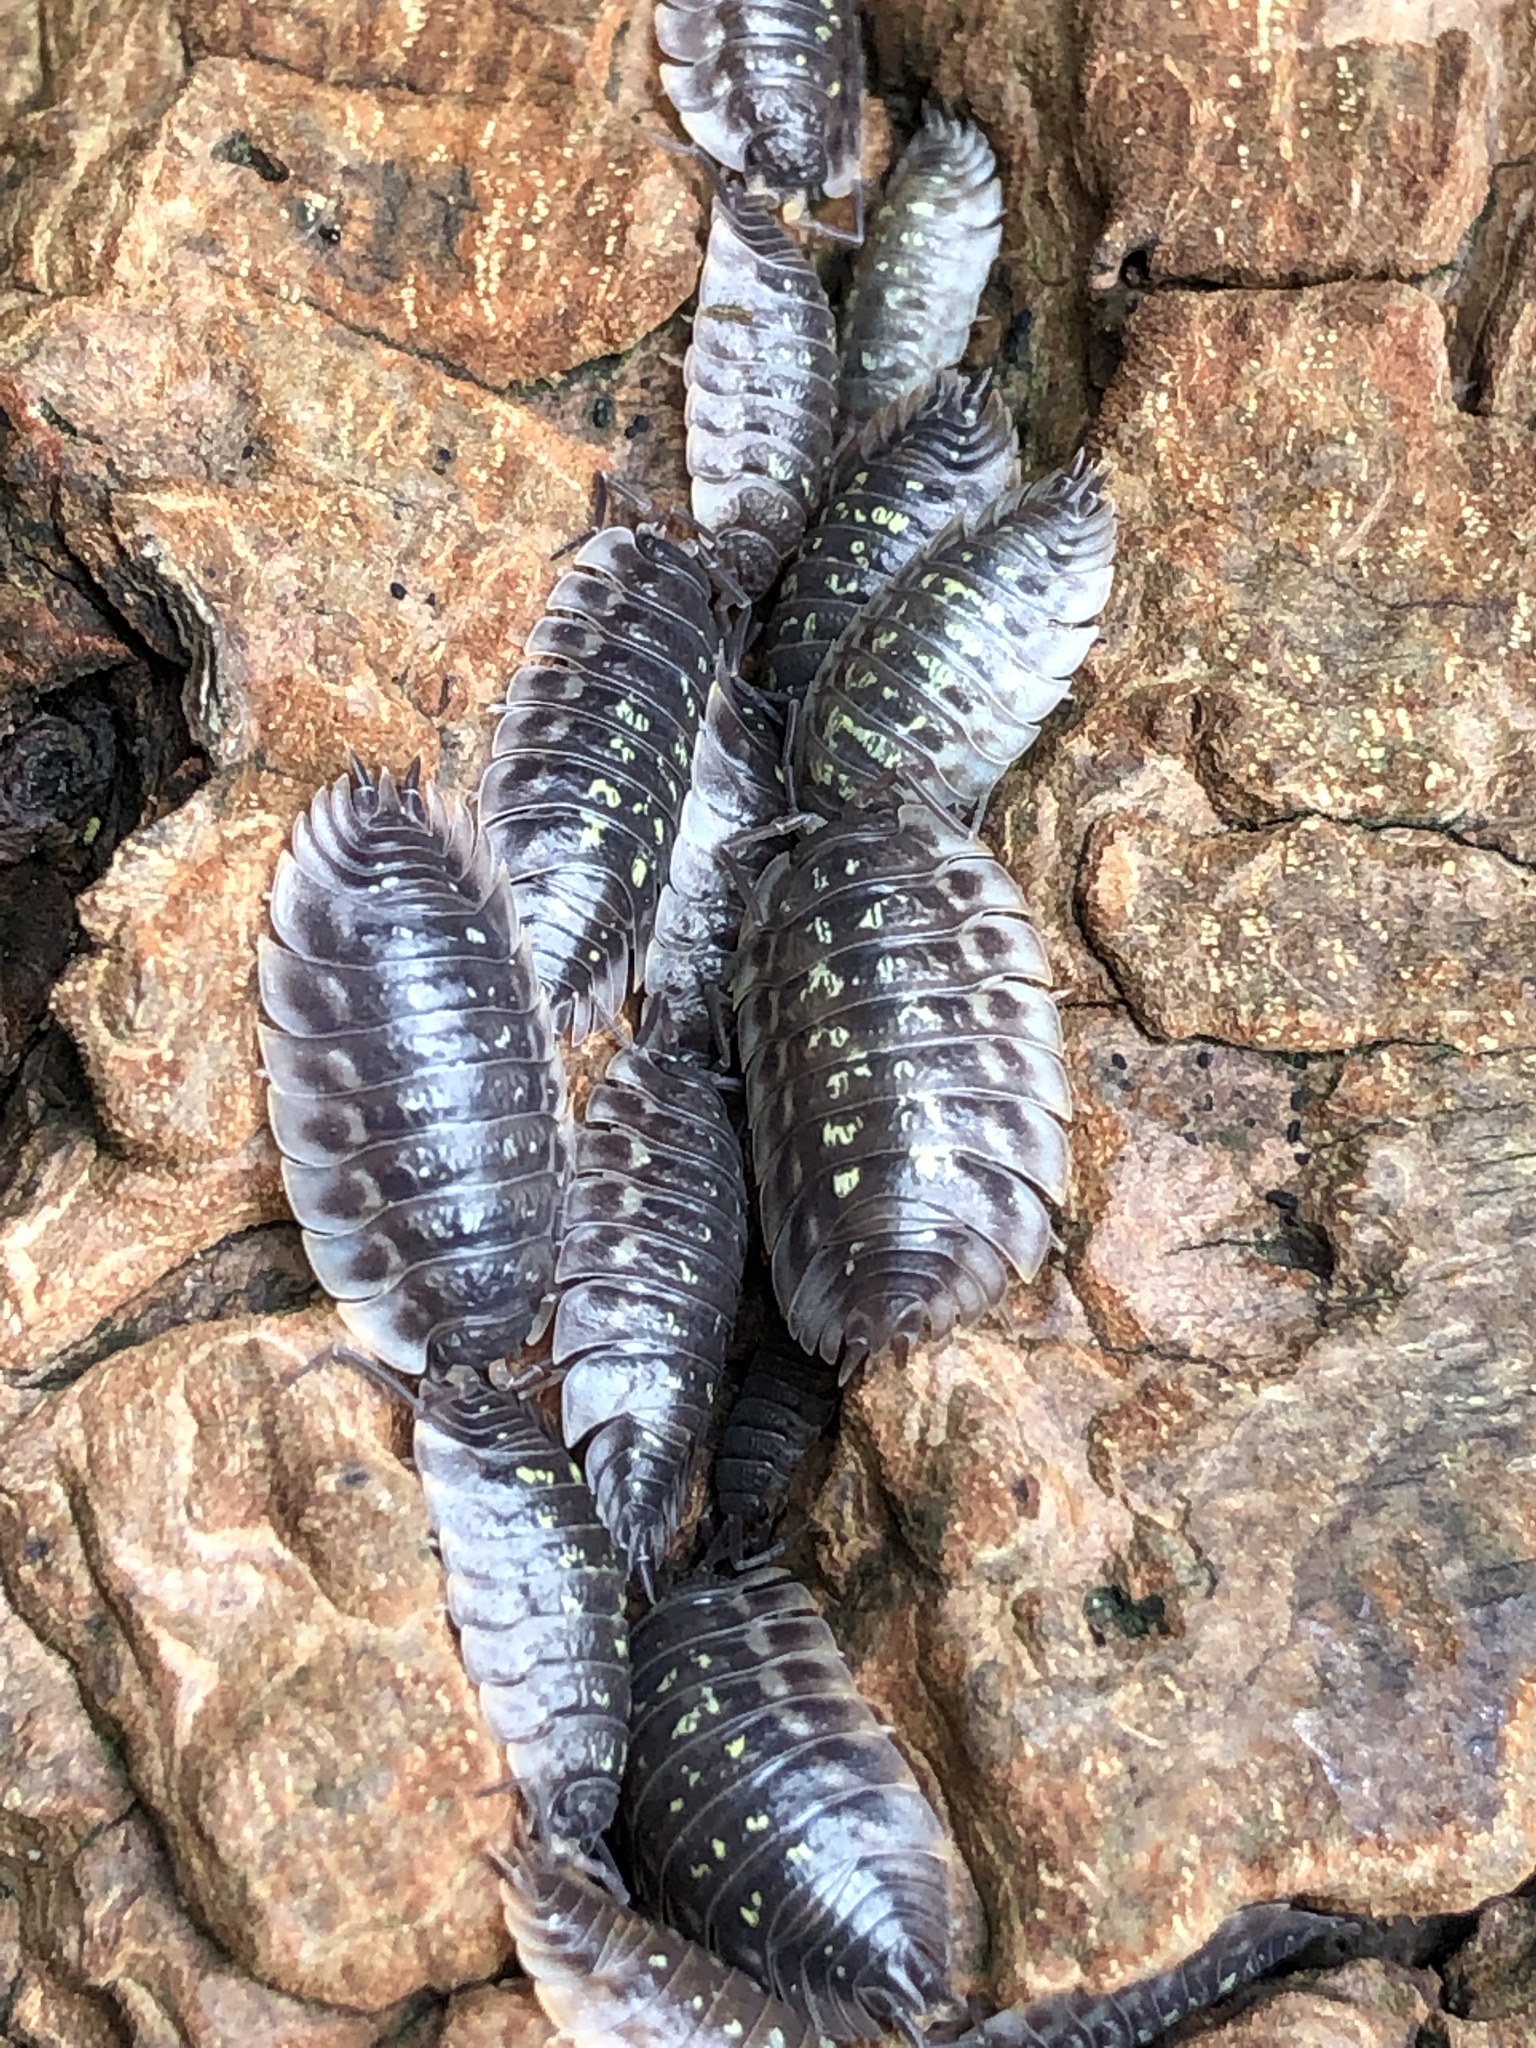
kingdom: Animalia
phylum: Arthropoda
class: Malacostraca
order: Isopoda
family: Oniscidae
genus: Oniscus
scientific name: Oniscus asellus
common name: Common shiny woodlouse
